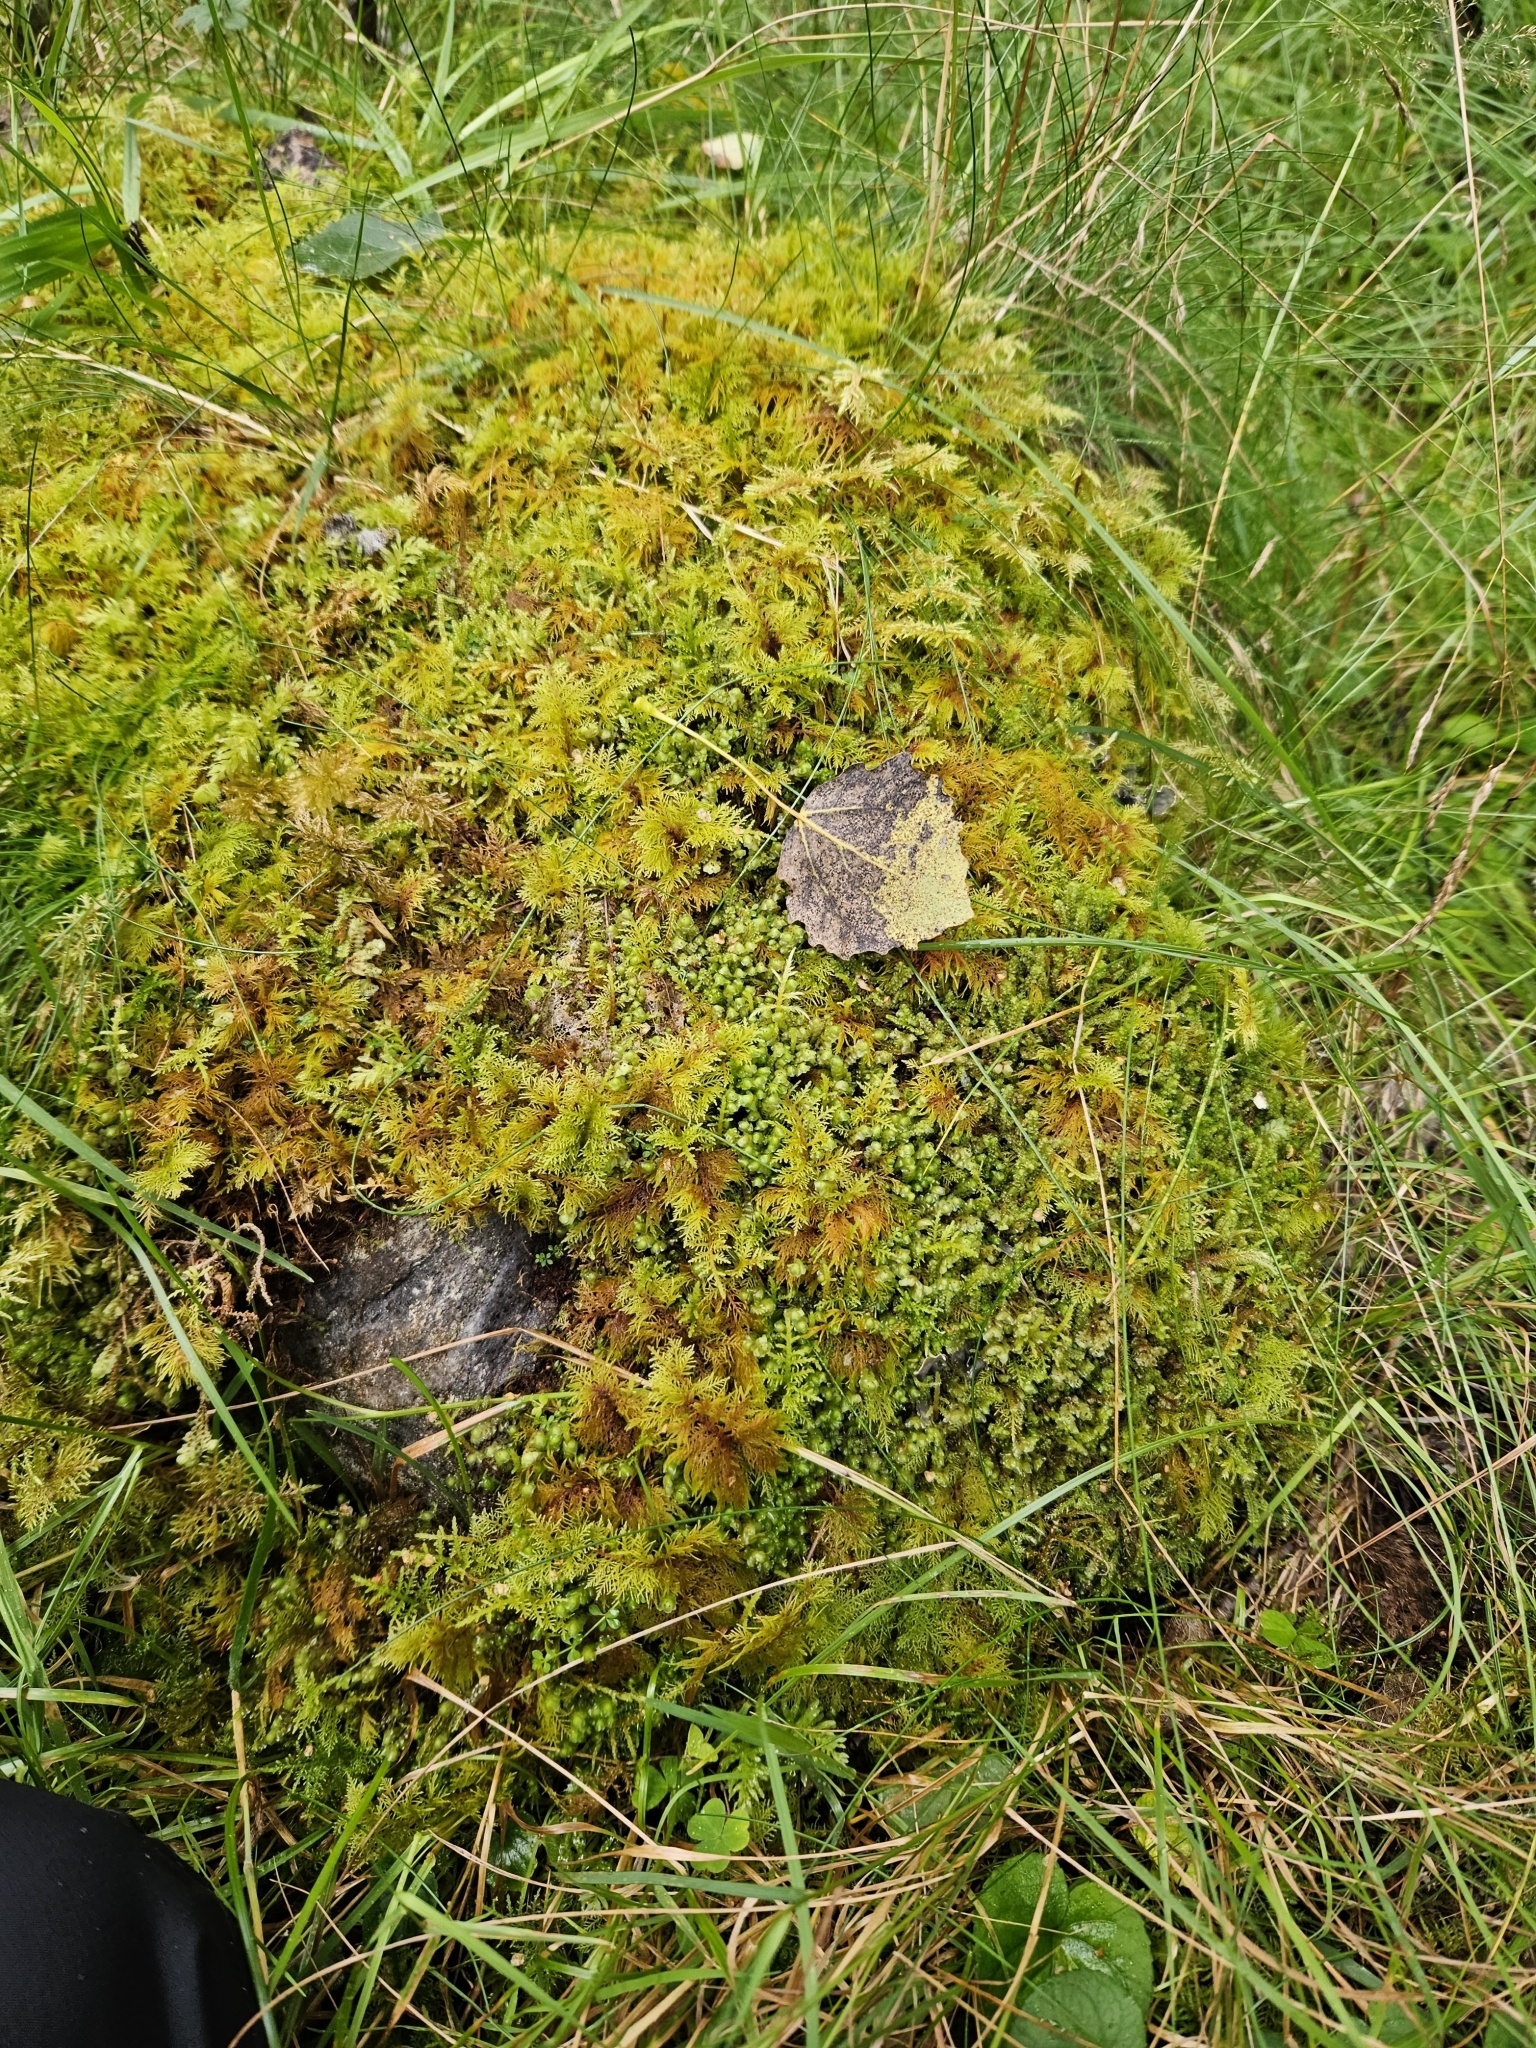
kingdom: Plantae
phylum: Marchantiophyta
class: Jungermanniopsida
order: Jungermanniales
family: Scapaniaceae
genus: Scapania
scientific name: Scapania nemorea
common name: Grove earwort
